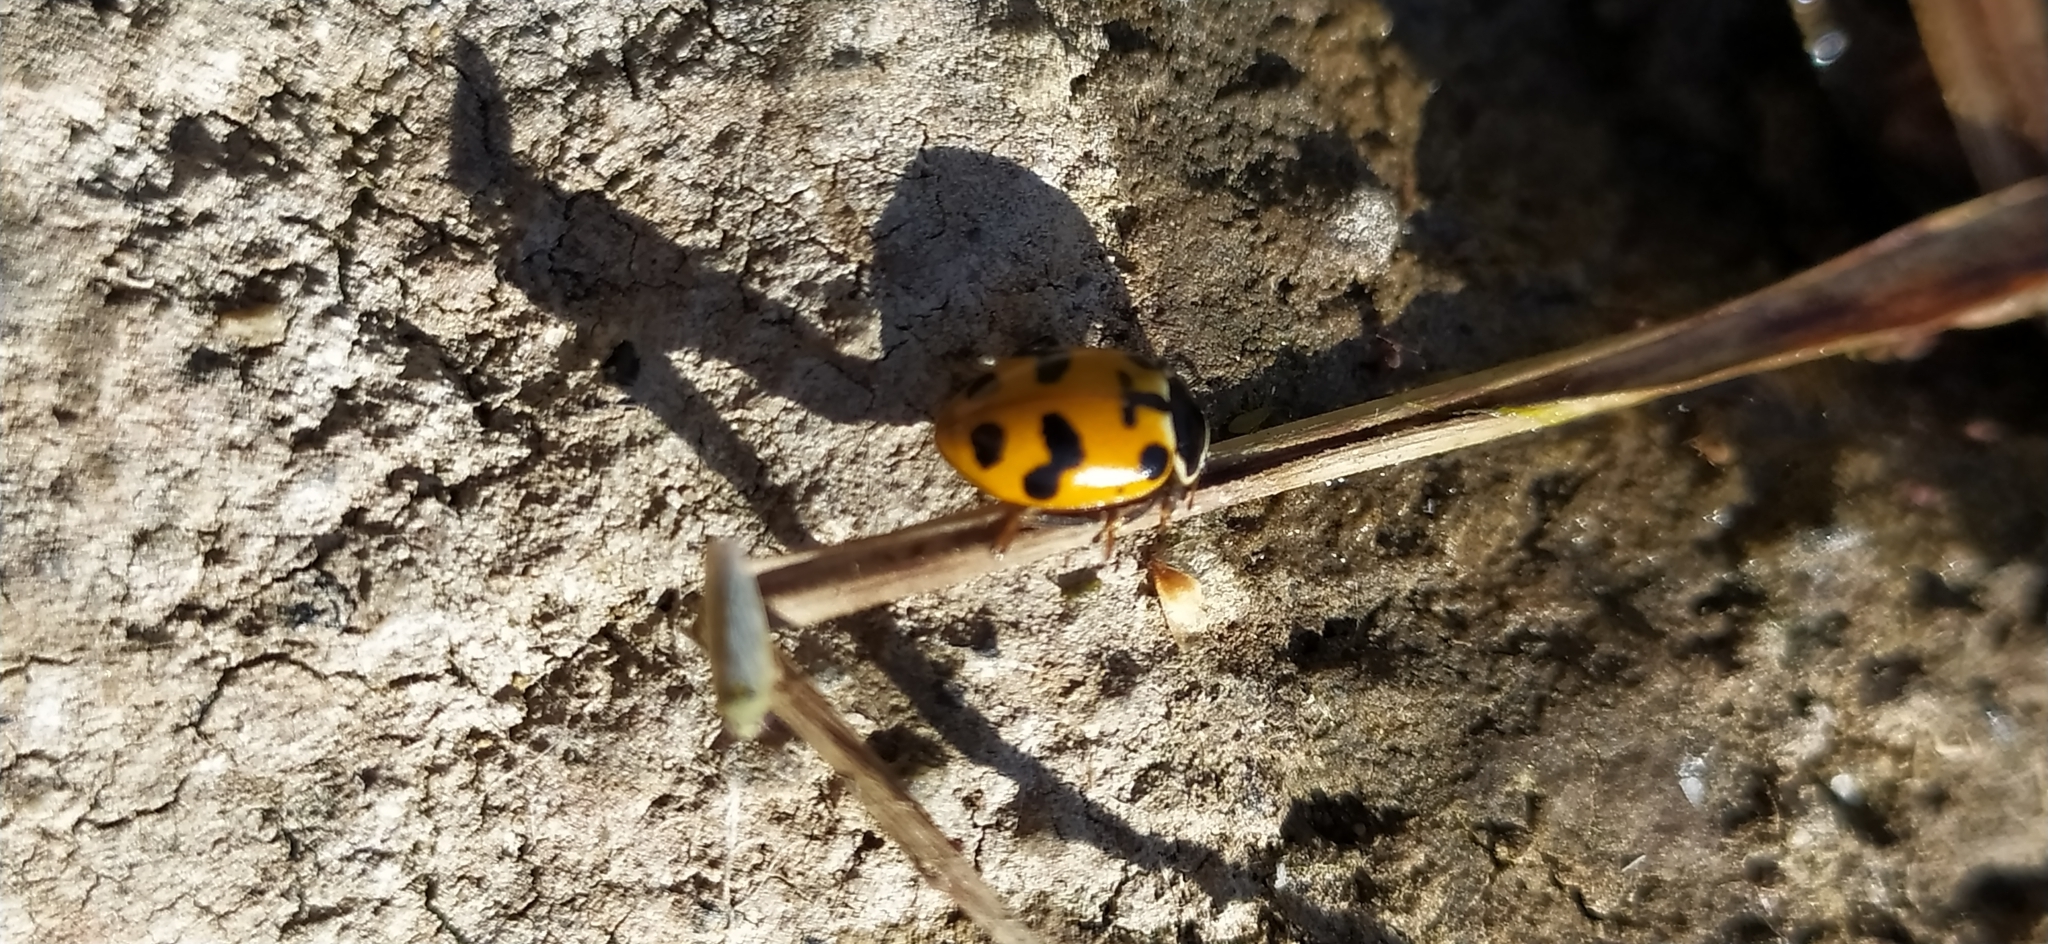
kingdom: Animalia
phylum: Arthropoda
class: Insecta
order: Coleoptera
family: Coccinellidae
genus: Hippodamia
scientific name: Hippodamia septemmaculata
